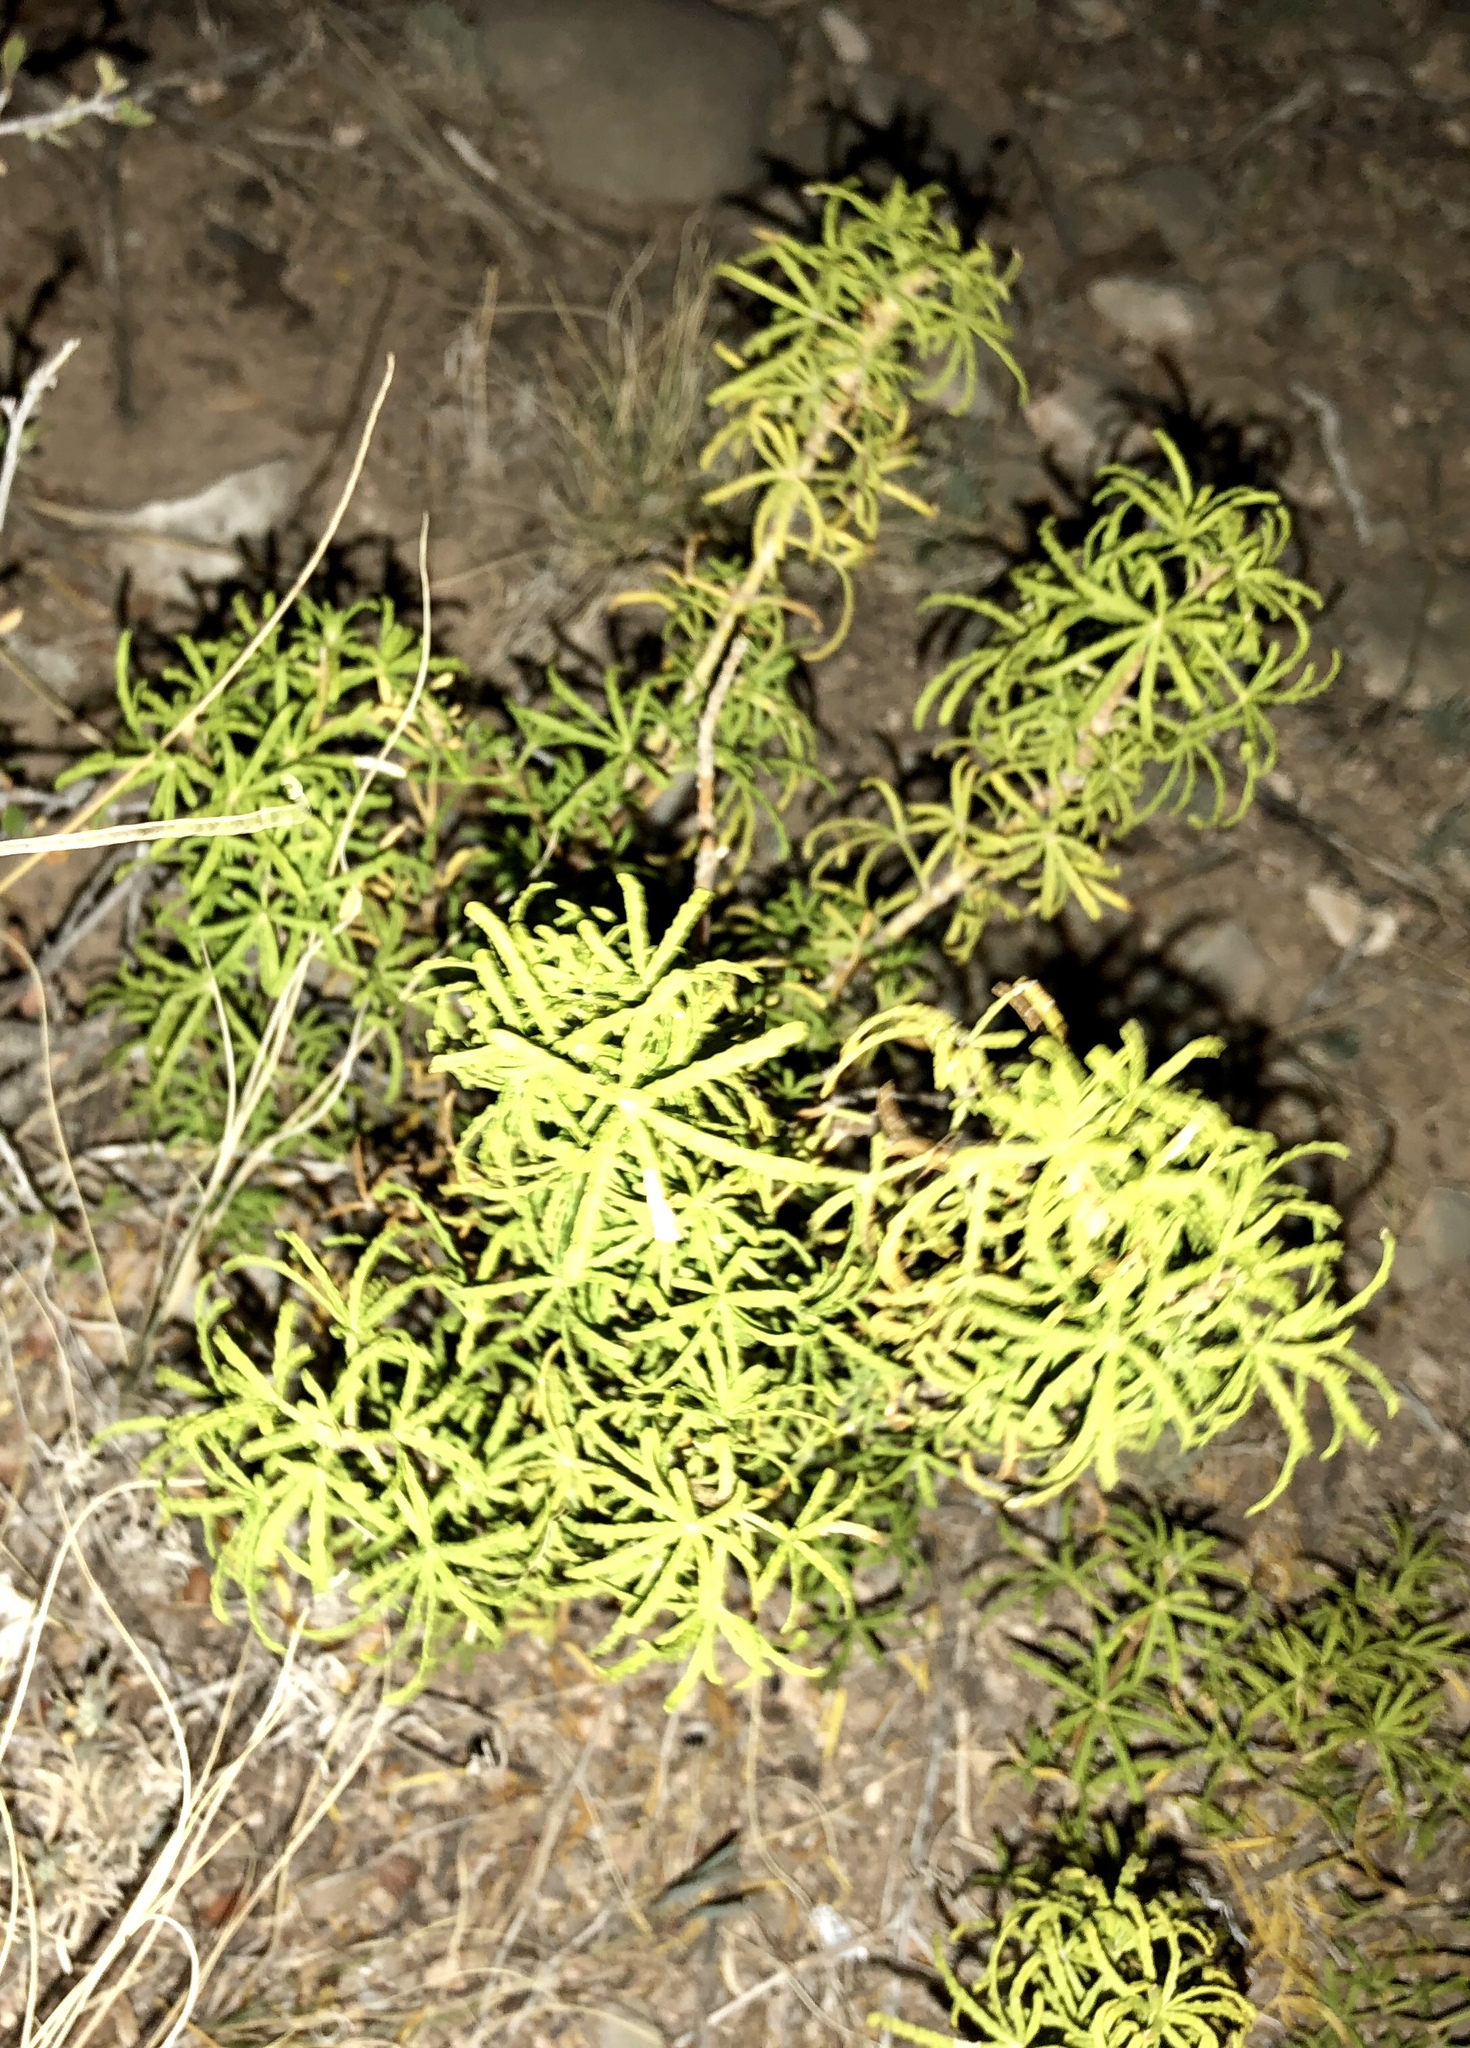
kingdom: Plantae
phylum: Tracheophyta
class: Magnoliopsida
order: Sapindales
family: Rutaceae
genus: Choisya
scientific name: Choisya dumosa
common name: Mexican-orange
